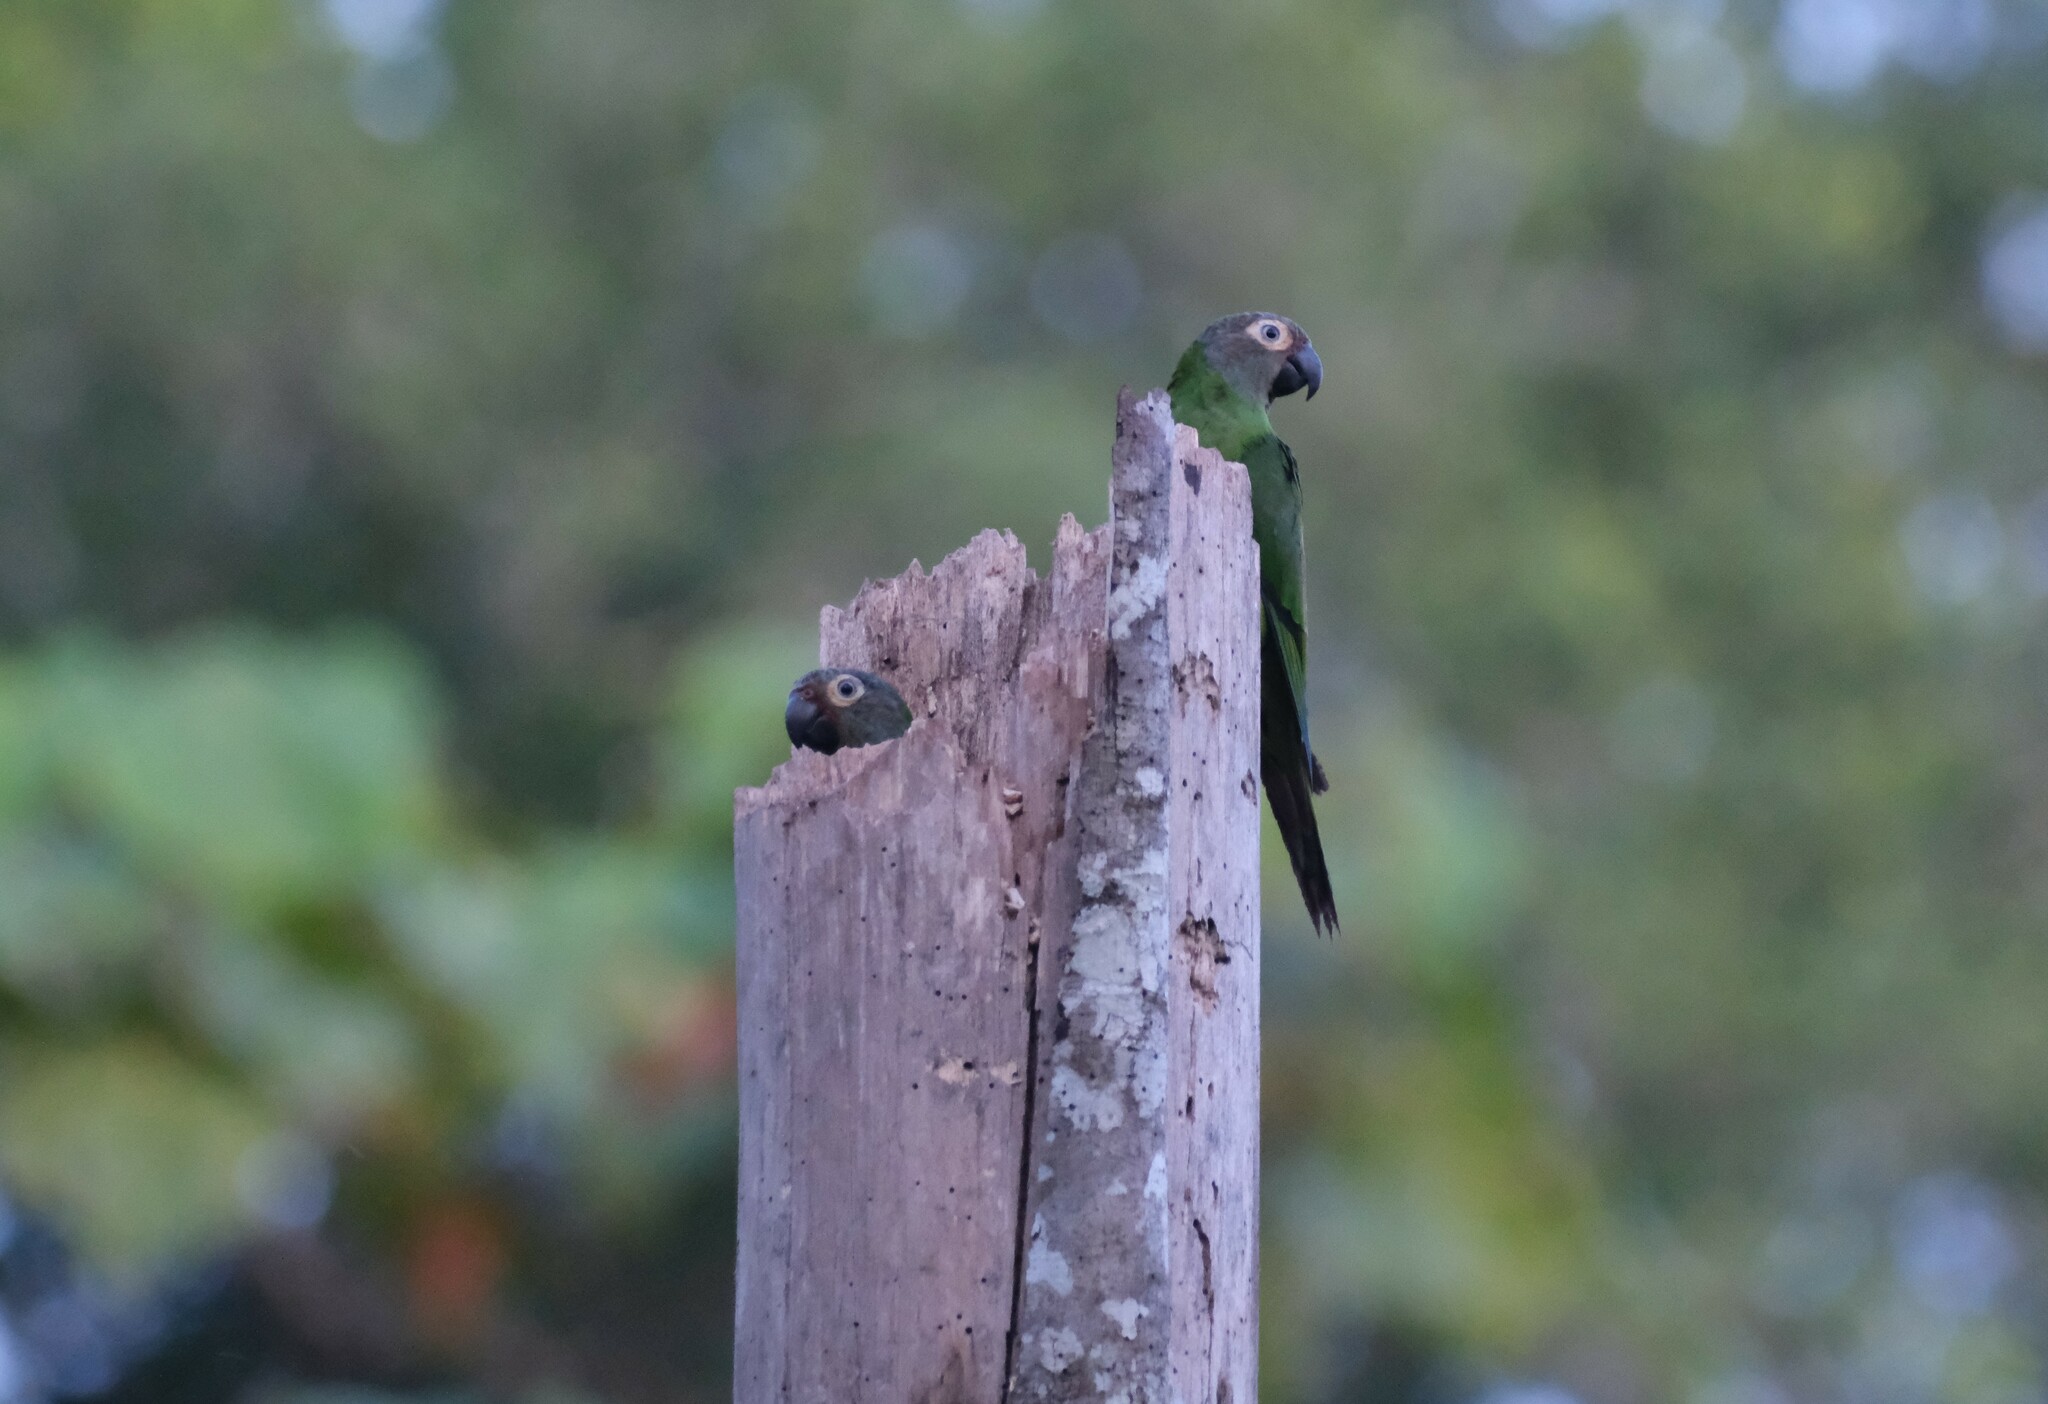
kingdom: Animalia
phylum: Chordata
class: Aves
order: Psittaciformes
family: Psittacidae
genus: Aratinga
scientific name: Aratinga weddellii
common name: Dusky-headed parakeet
